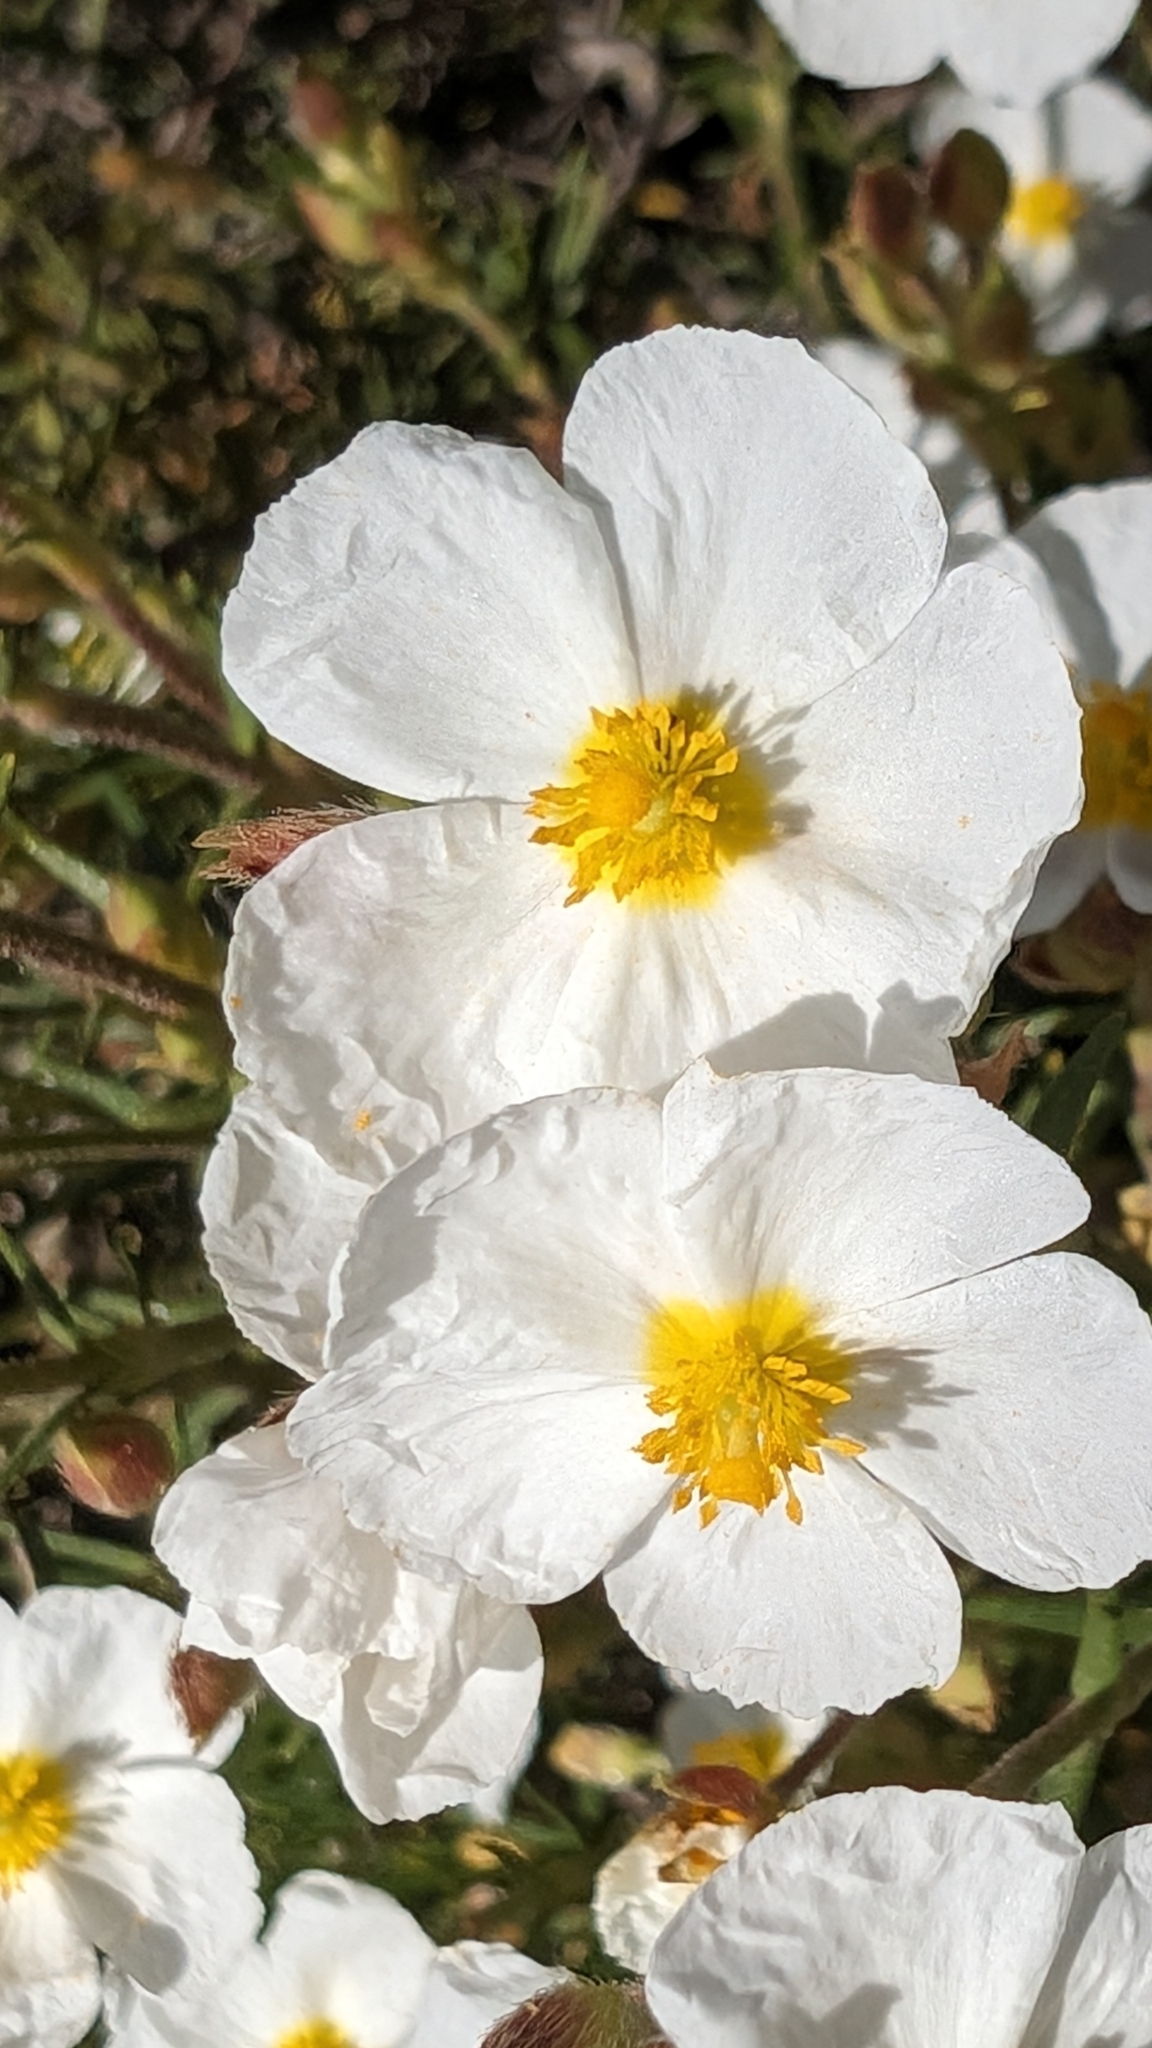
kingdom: Plantae
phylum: Tracheophyta
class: Magnoliopsida
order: Malvales
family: Cistaceae
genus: Cistus
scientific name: Cistus clusii
